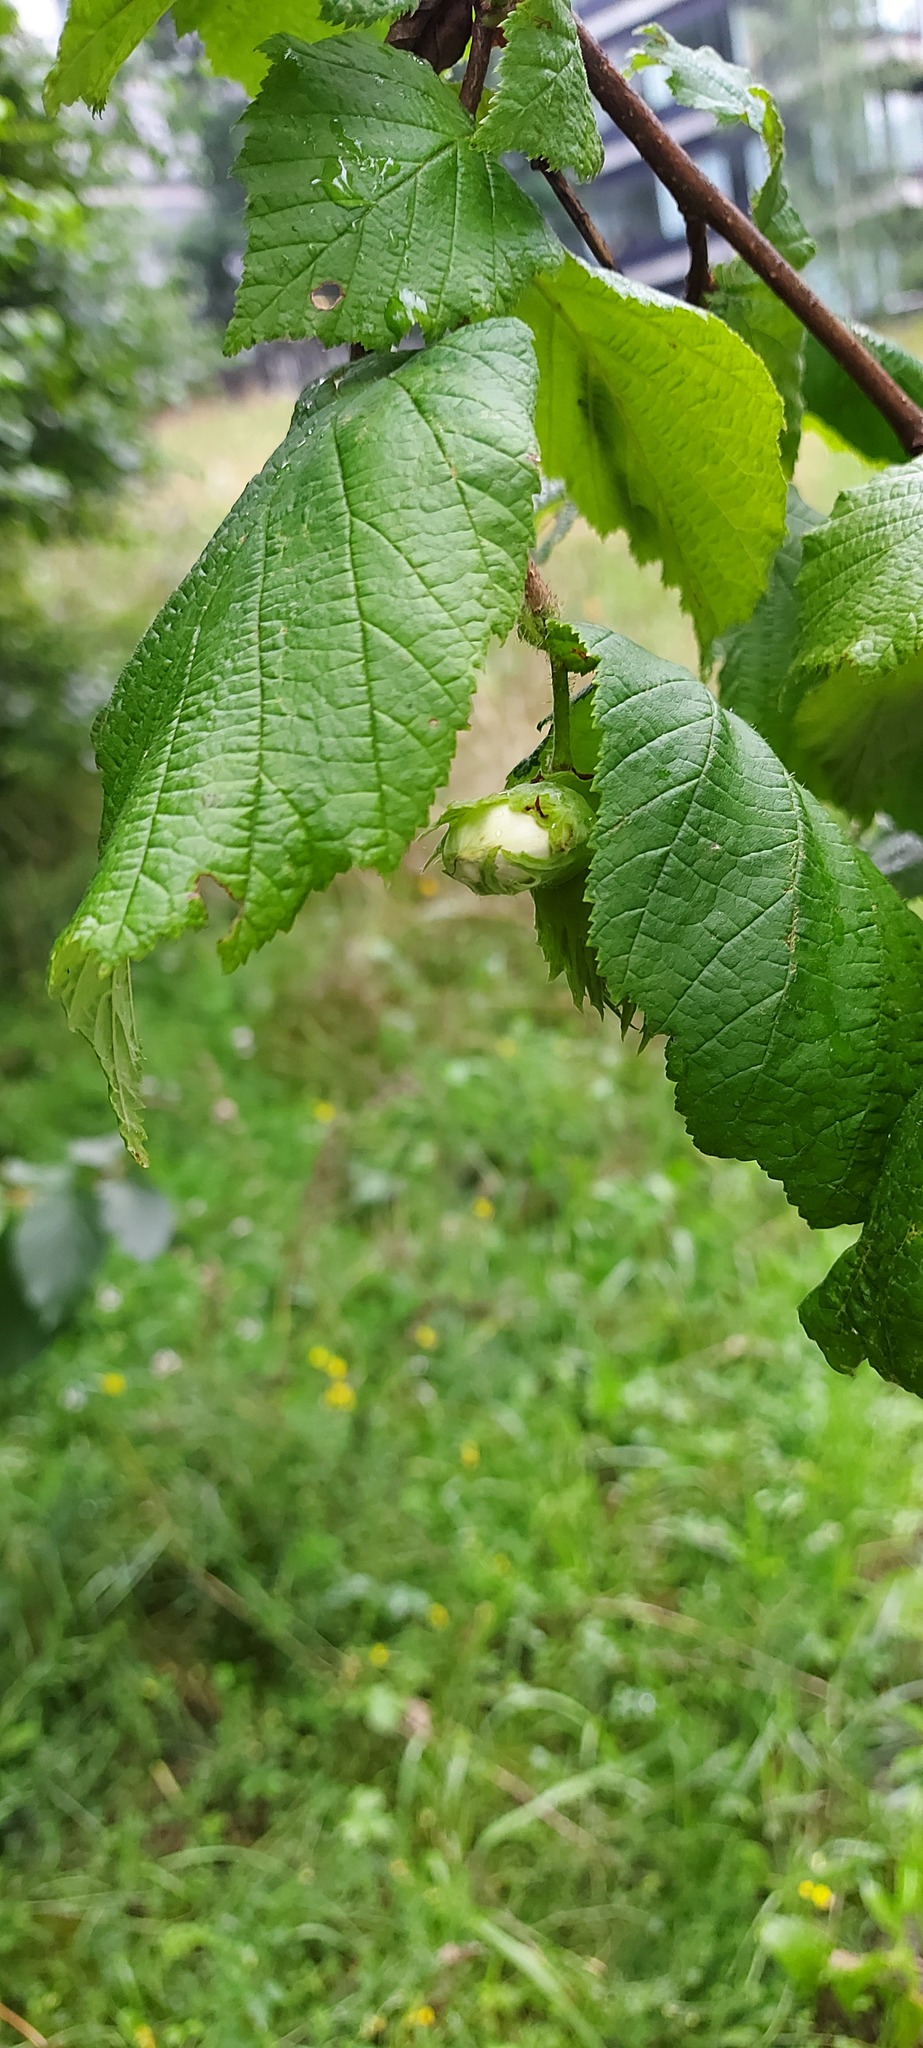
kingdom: Plantae
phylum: Tracheophyta
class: Magnoliopsida
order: Fagales
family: Betulaceae
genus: Corylus
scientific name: Corylus avellana
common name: European hazel
